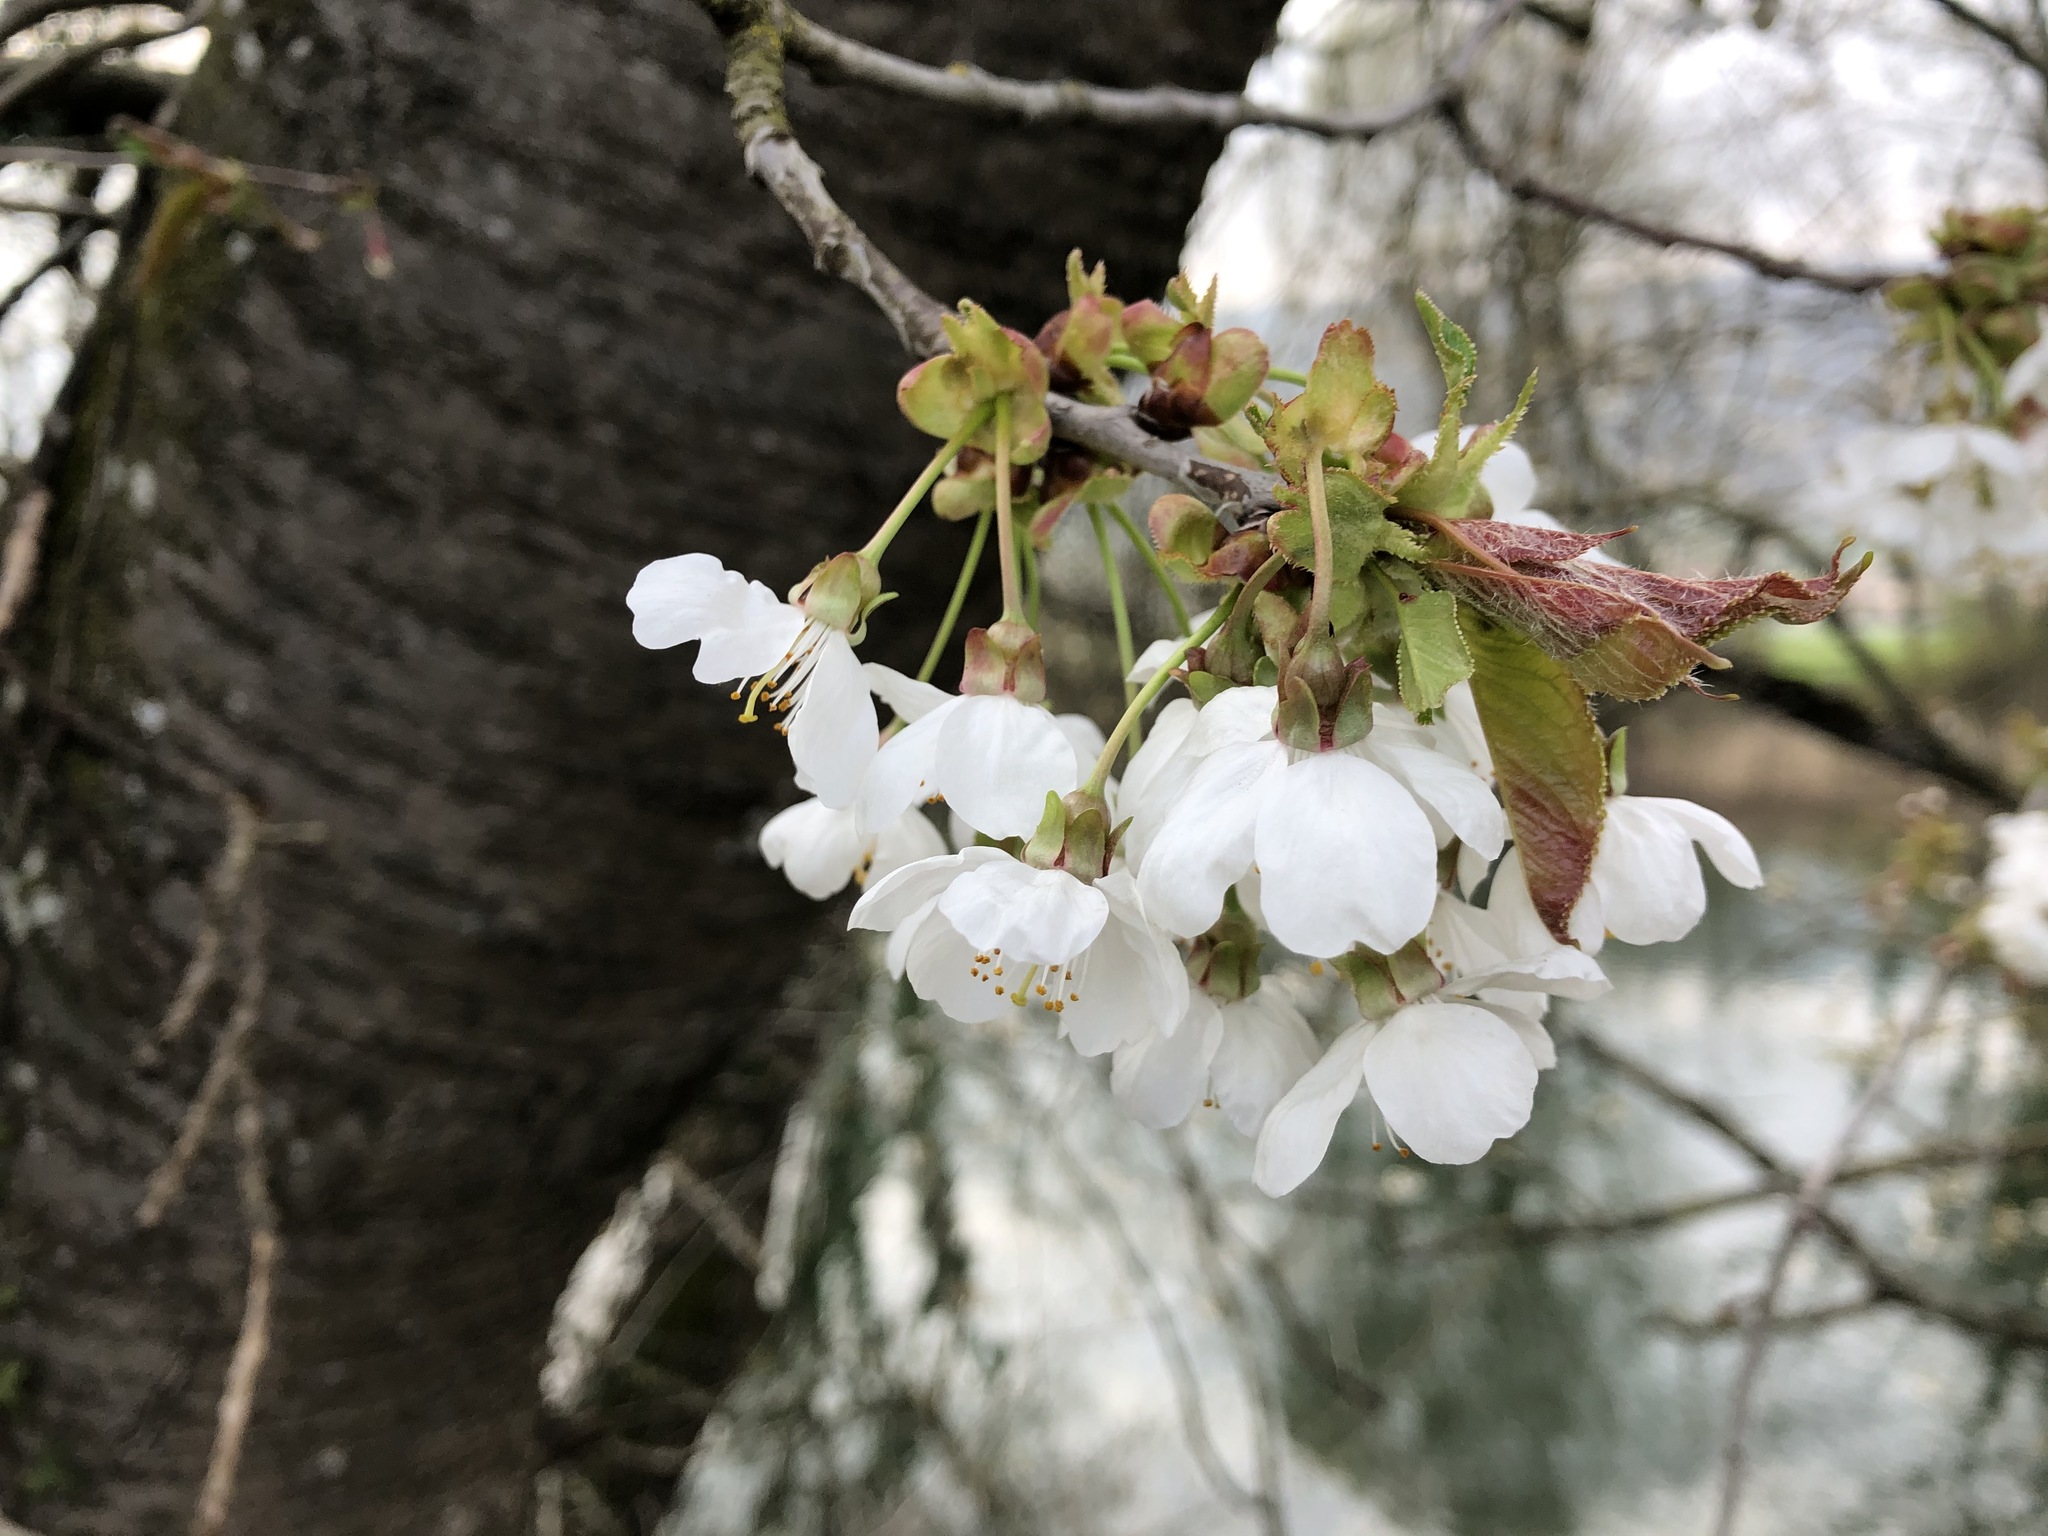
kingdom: Plantae
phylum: Tracheophyta
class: Magnoliopsida
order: Rosales
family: Rosaceae
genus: Prunus
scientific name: Prunus avium
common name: Sweet cherry
